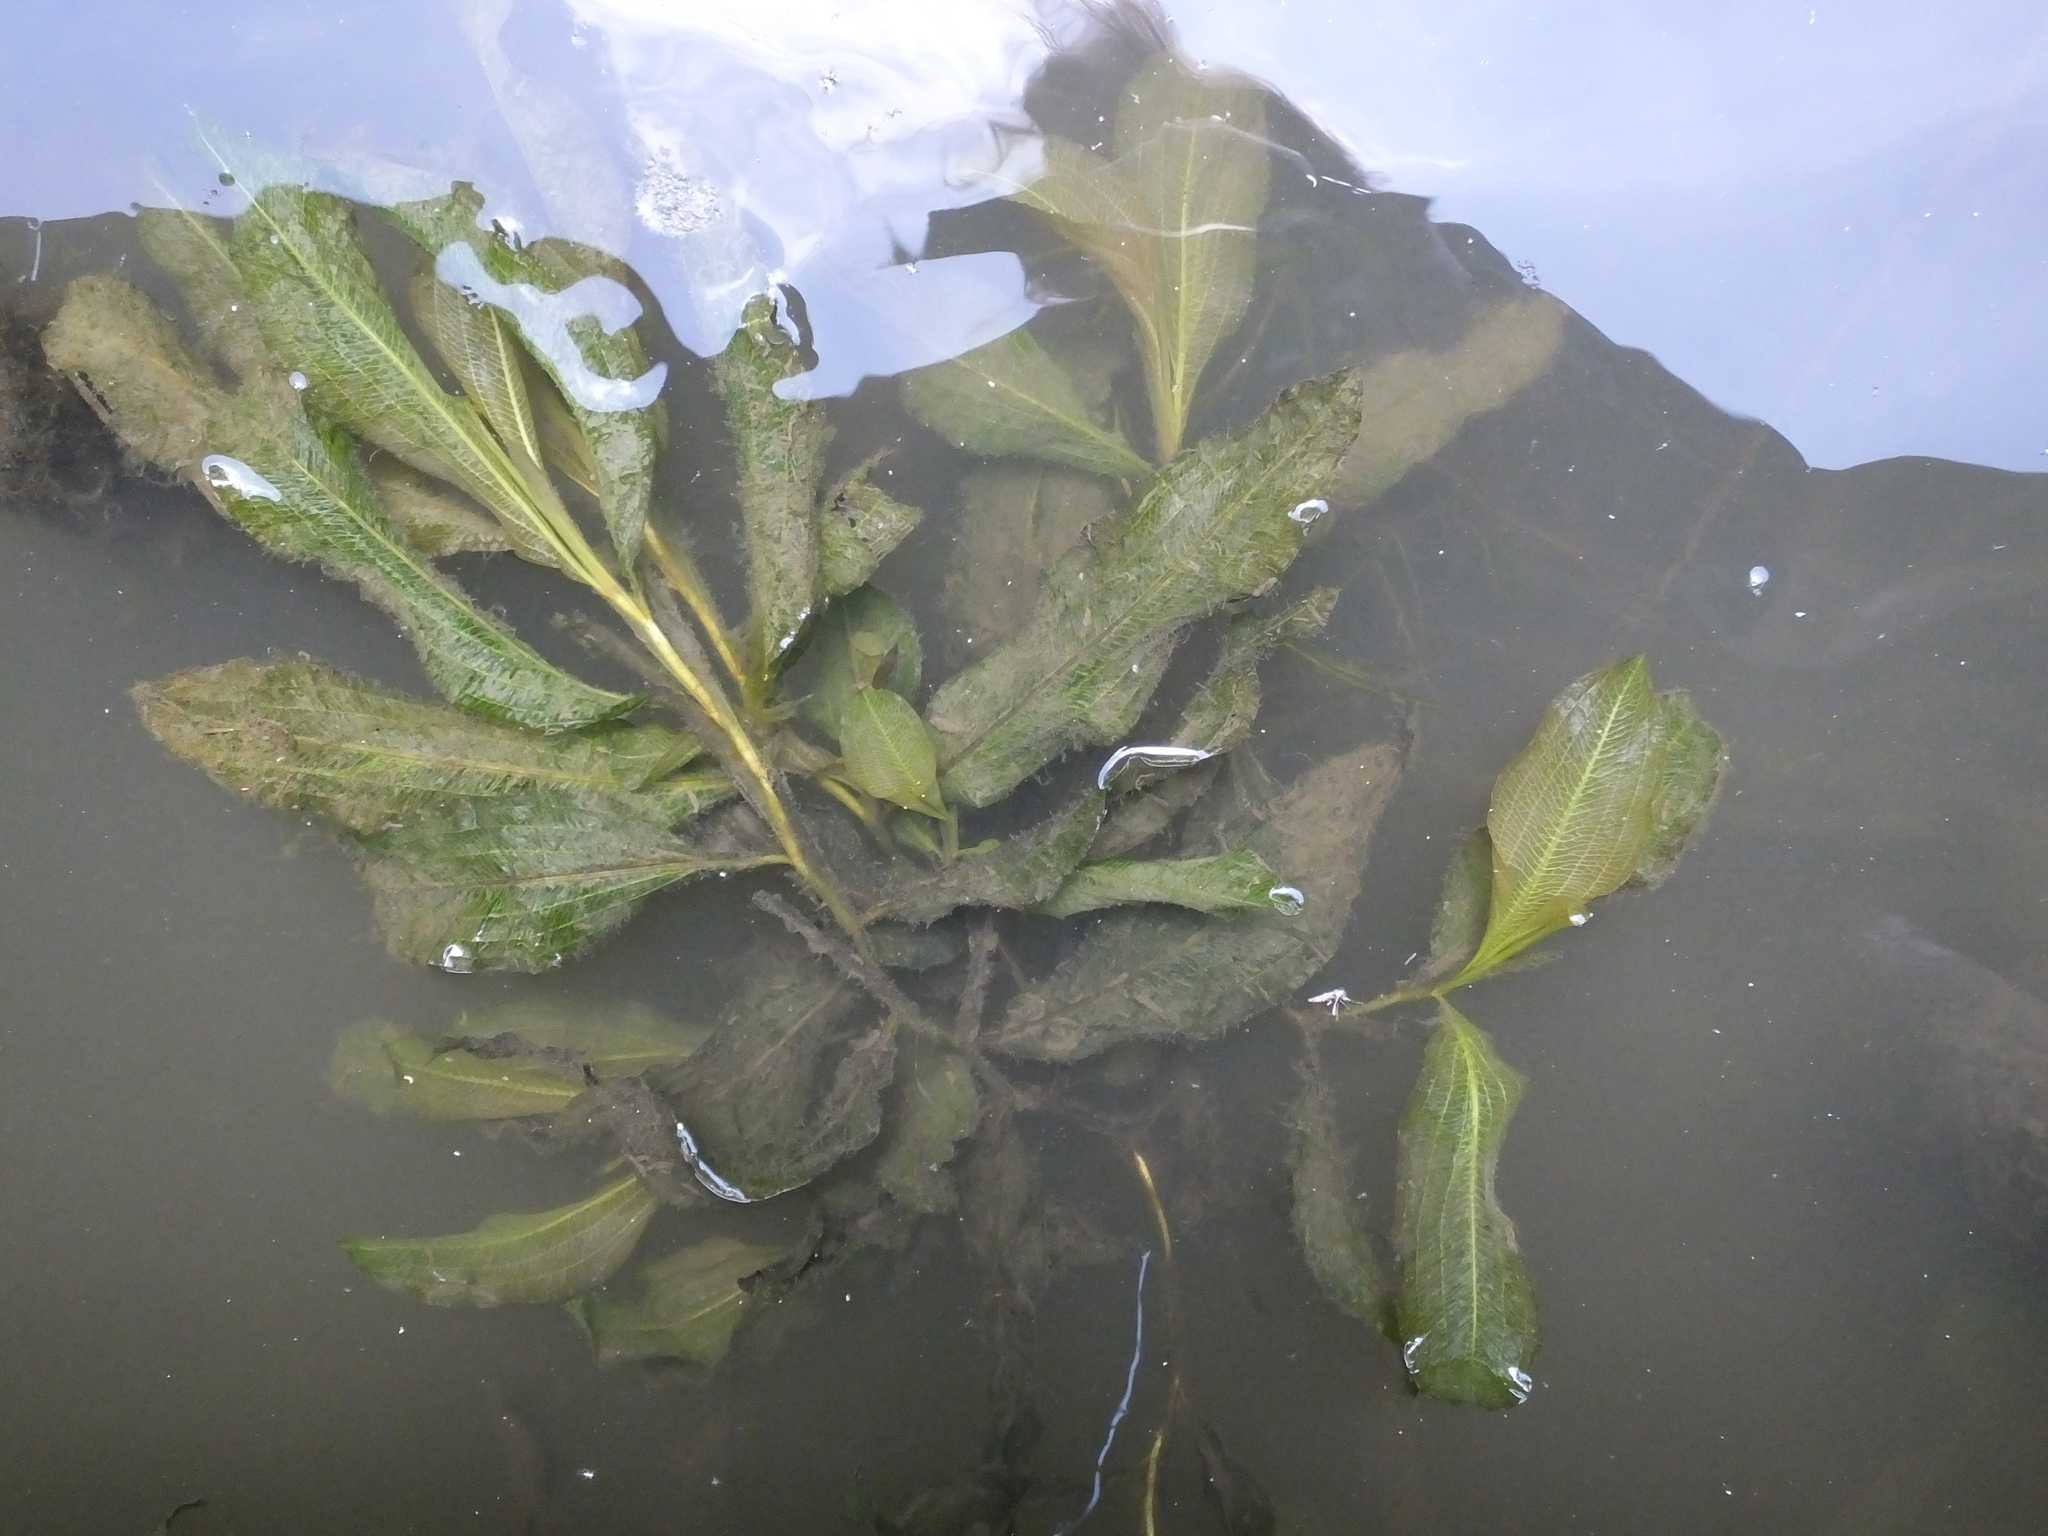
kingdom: Plantae
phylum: Tracheophyta
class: Liliopsida
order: Alismatales
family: Potamogetonaceae
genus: Potamogeton
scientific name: Potamogeton lucens
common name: Shining pondweed
